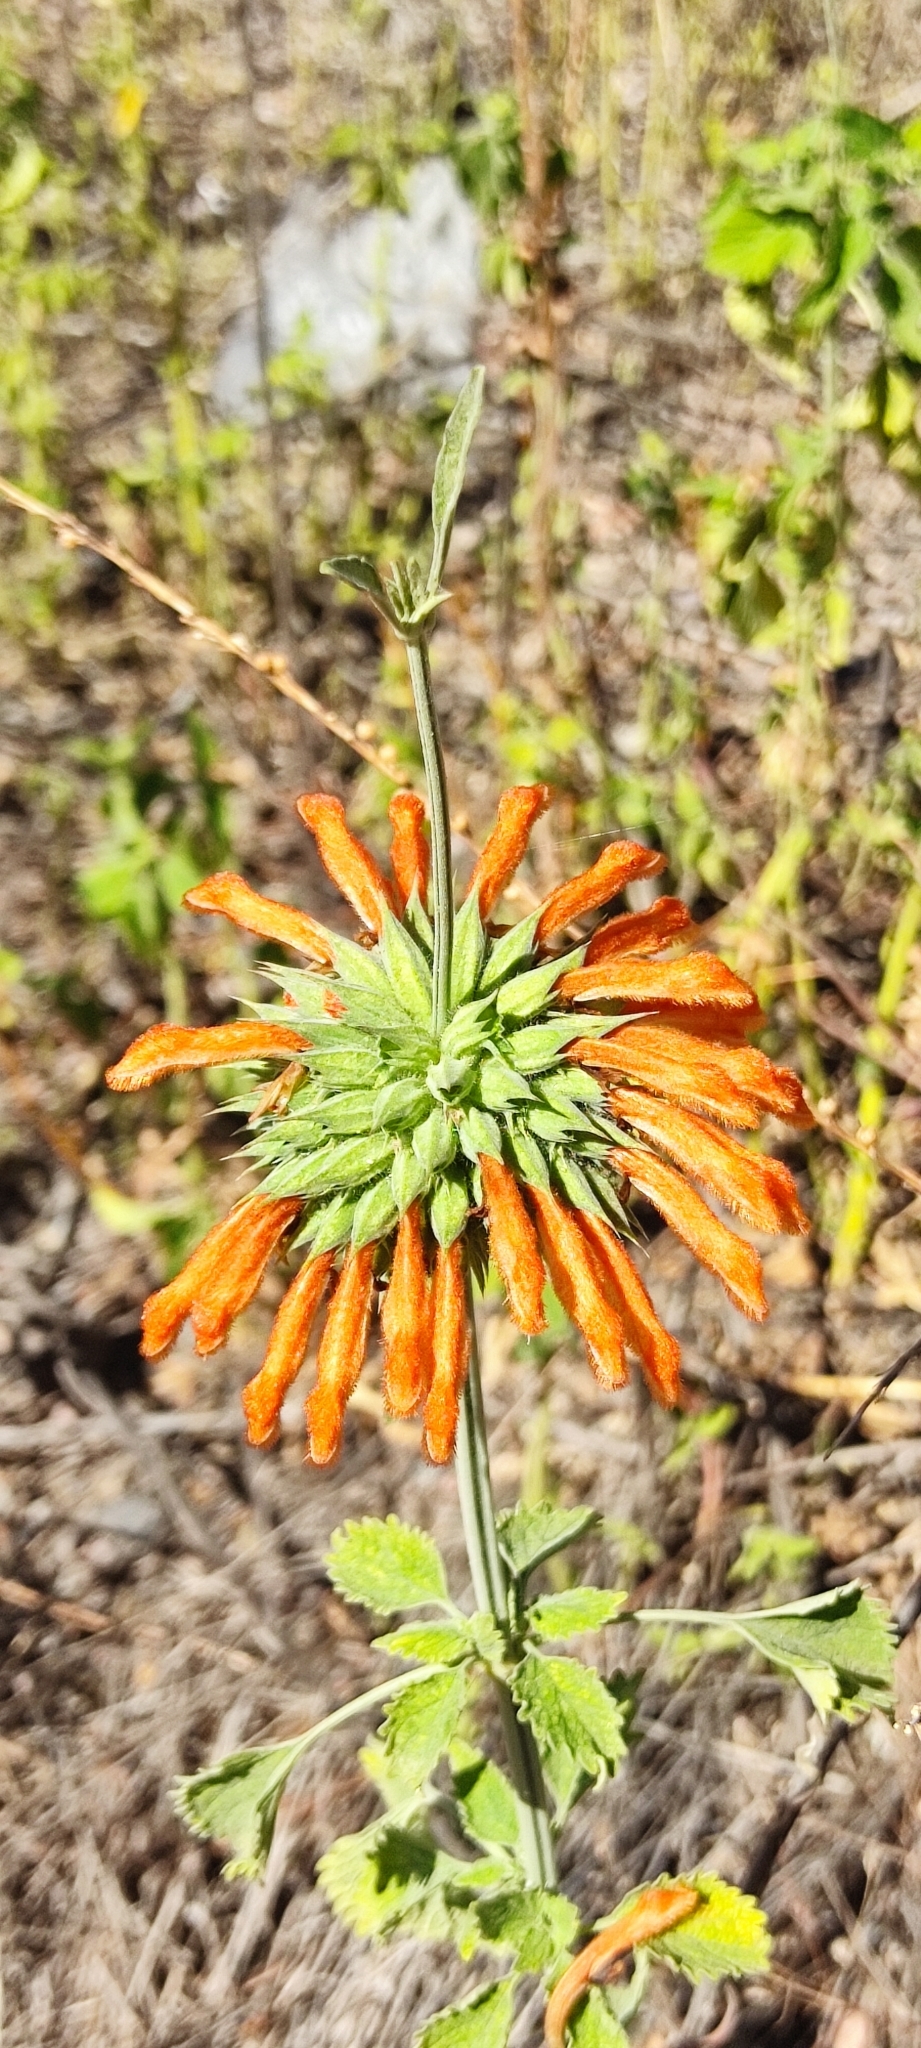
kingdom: Plantae
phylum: Tracheophyta
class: Magnoliopsida
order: Lamiales
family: Lamiaceae
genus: Leonotis
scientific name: Leonotis nepetifolia
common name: Christmas candlestick
